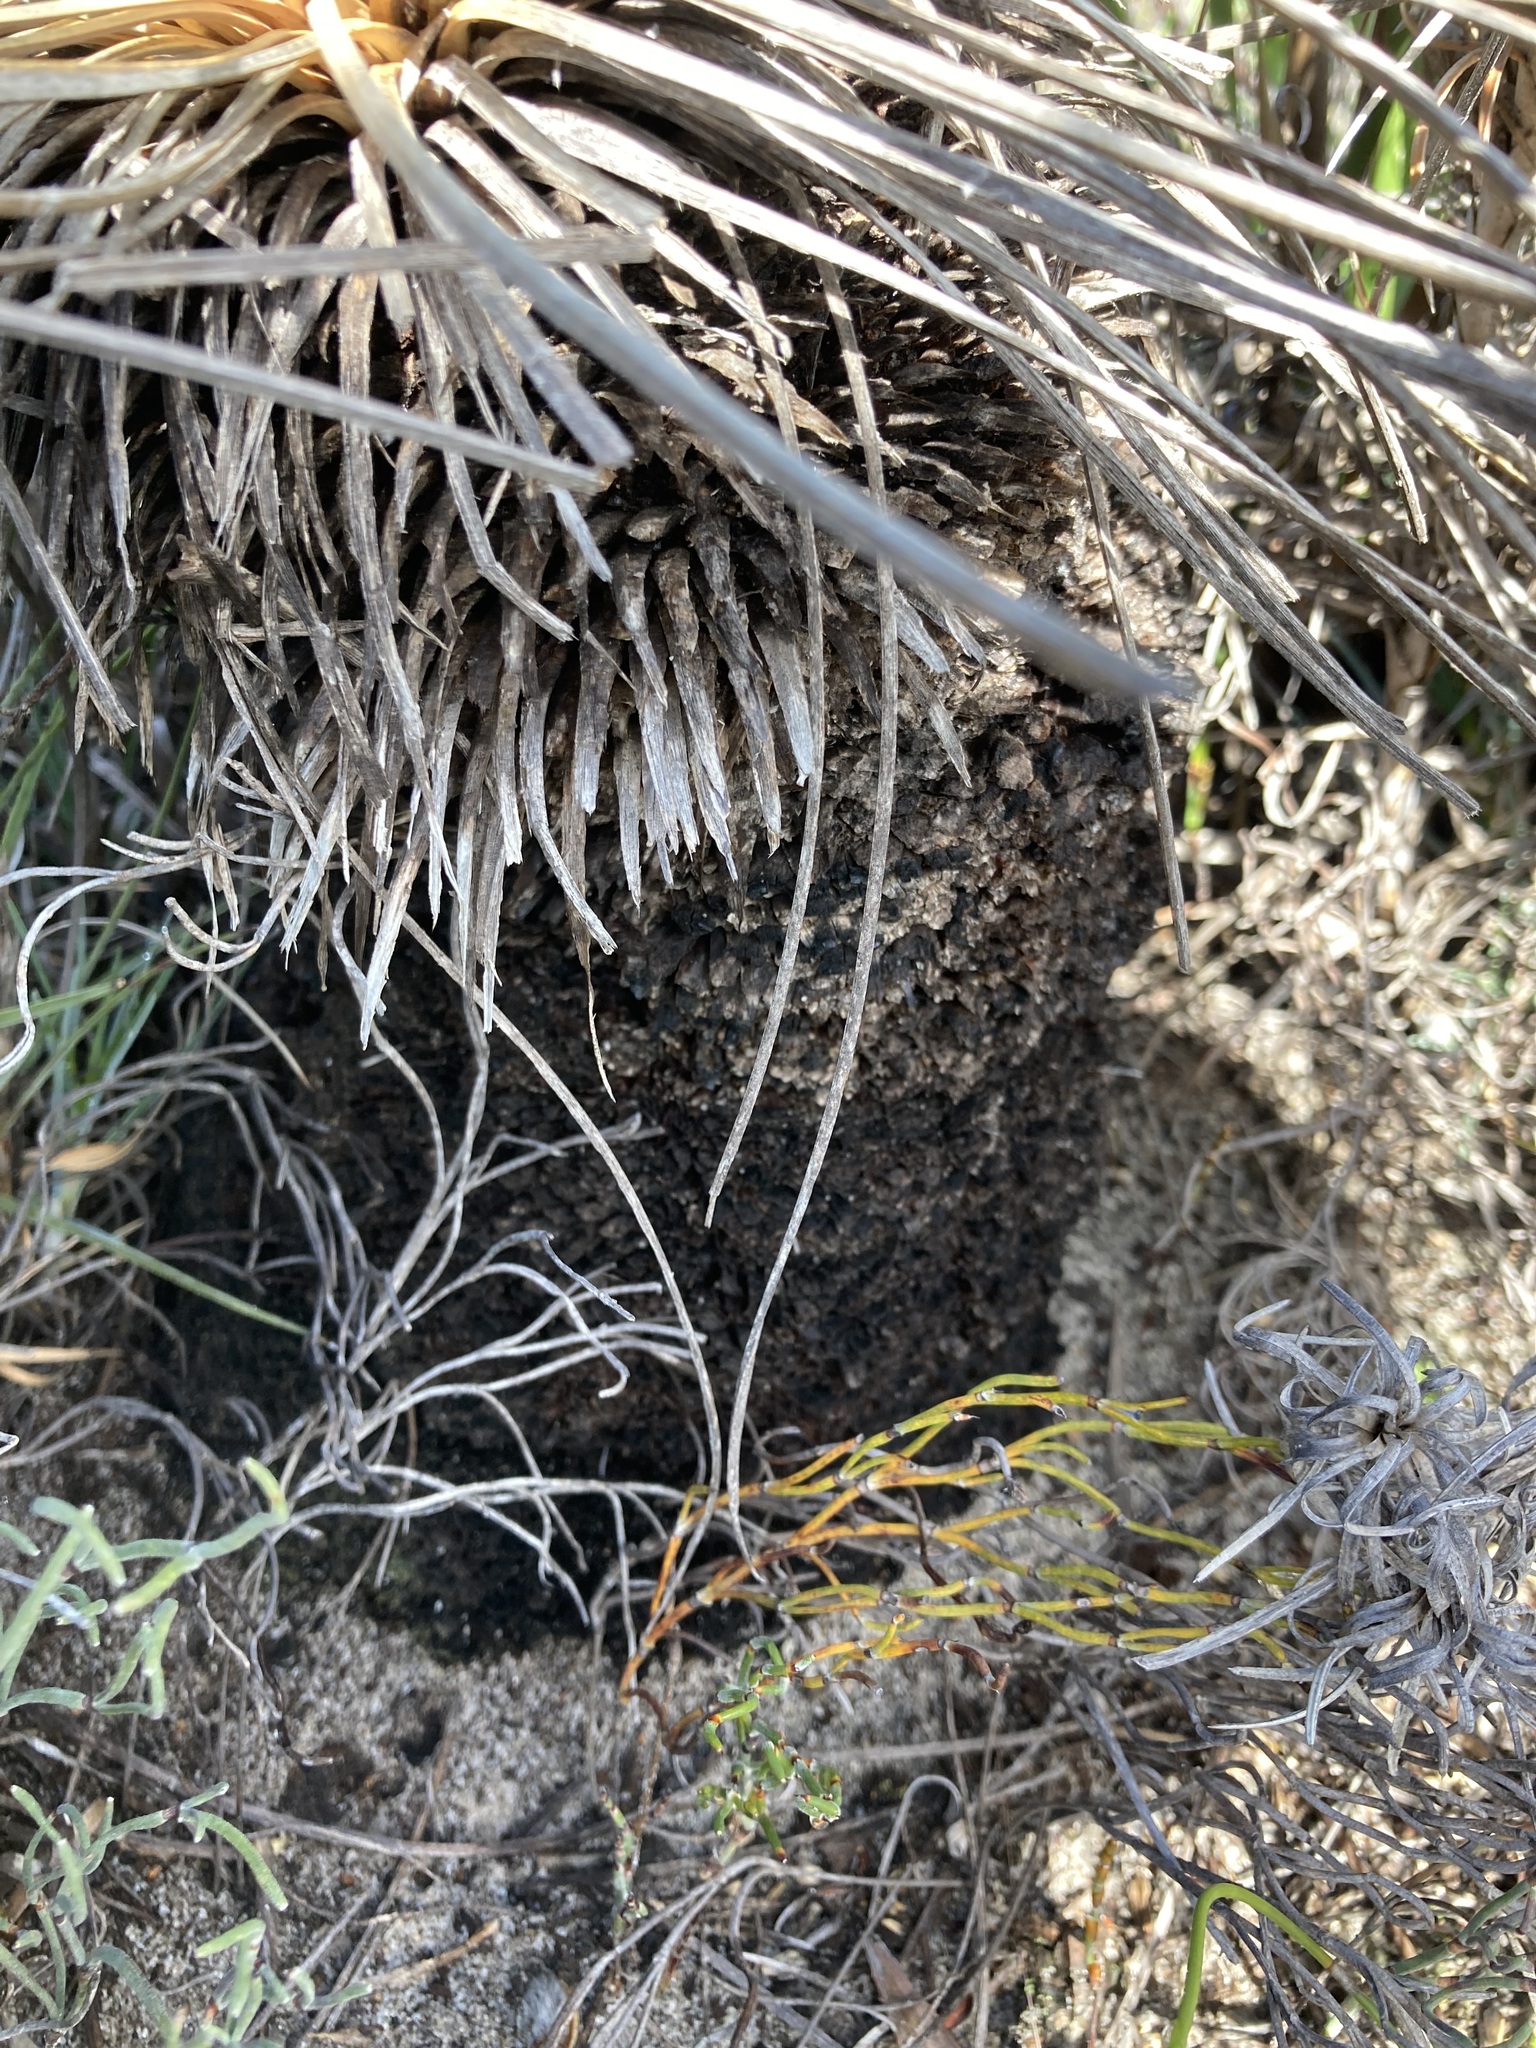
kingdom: Plantae
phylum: Tracheophyta
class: Liliopsida
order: Asparagales
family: Asphodelaceae
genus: Xanthorrhoea
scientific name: Xanthorrhoea drummondii
